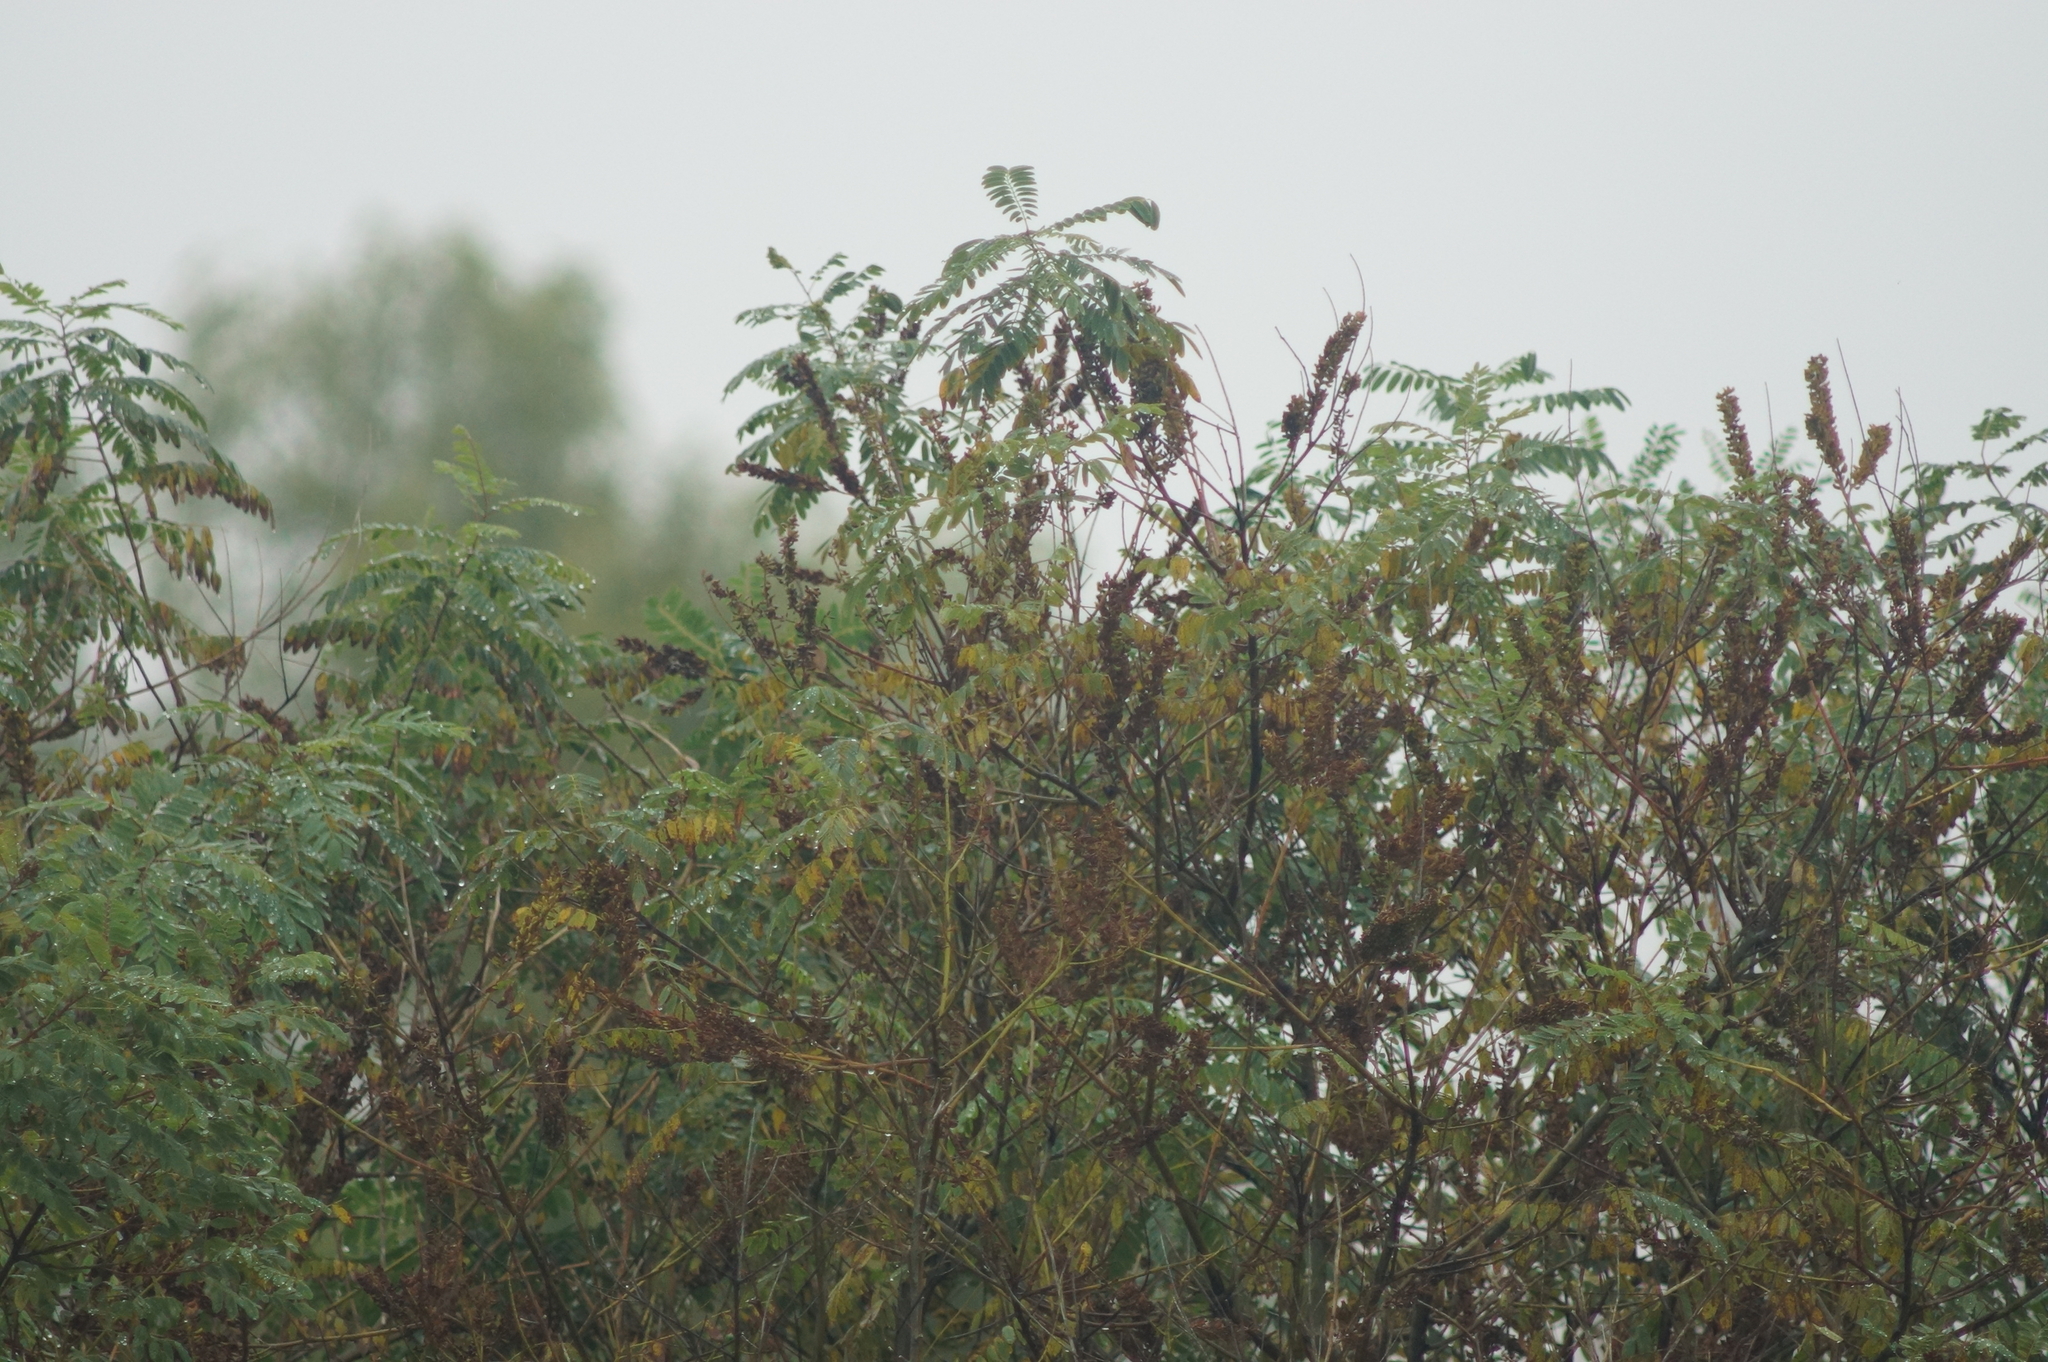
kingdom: Plantae
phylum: Tracheophyta
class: Magnoliopsida
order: Fabales
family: Fabaceae
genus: Amorpha
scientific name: Amorpha fruticosa
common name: False indigo
